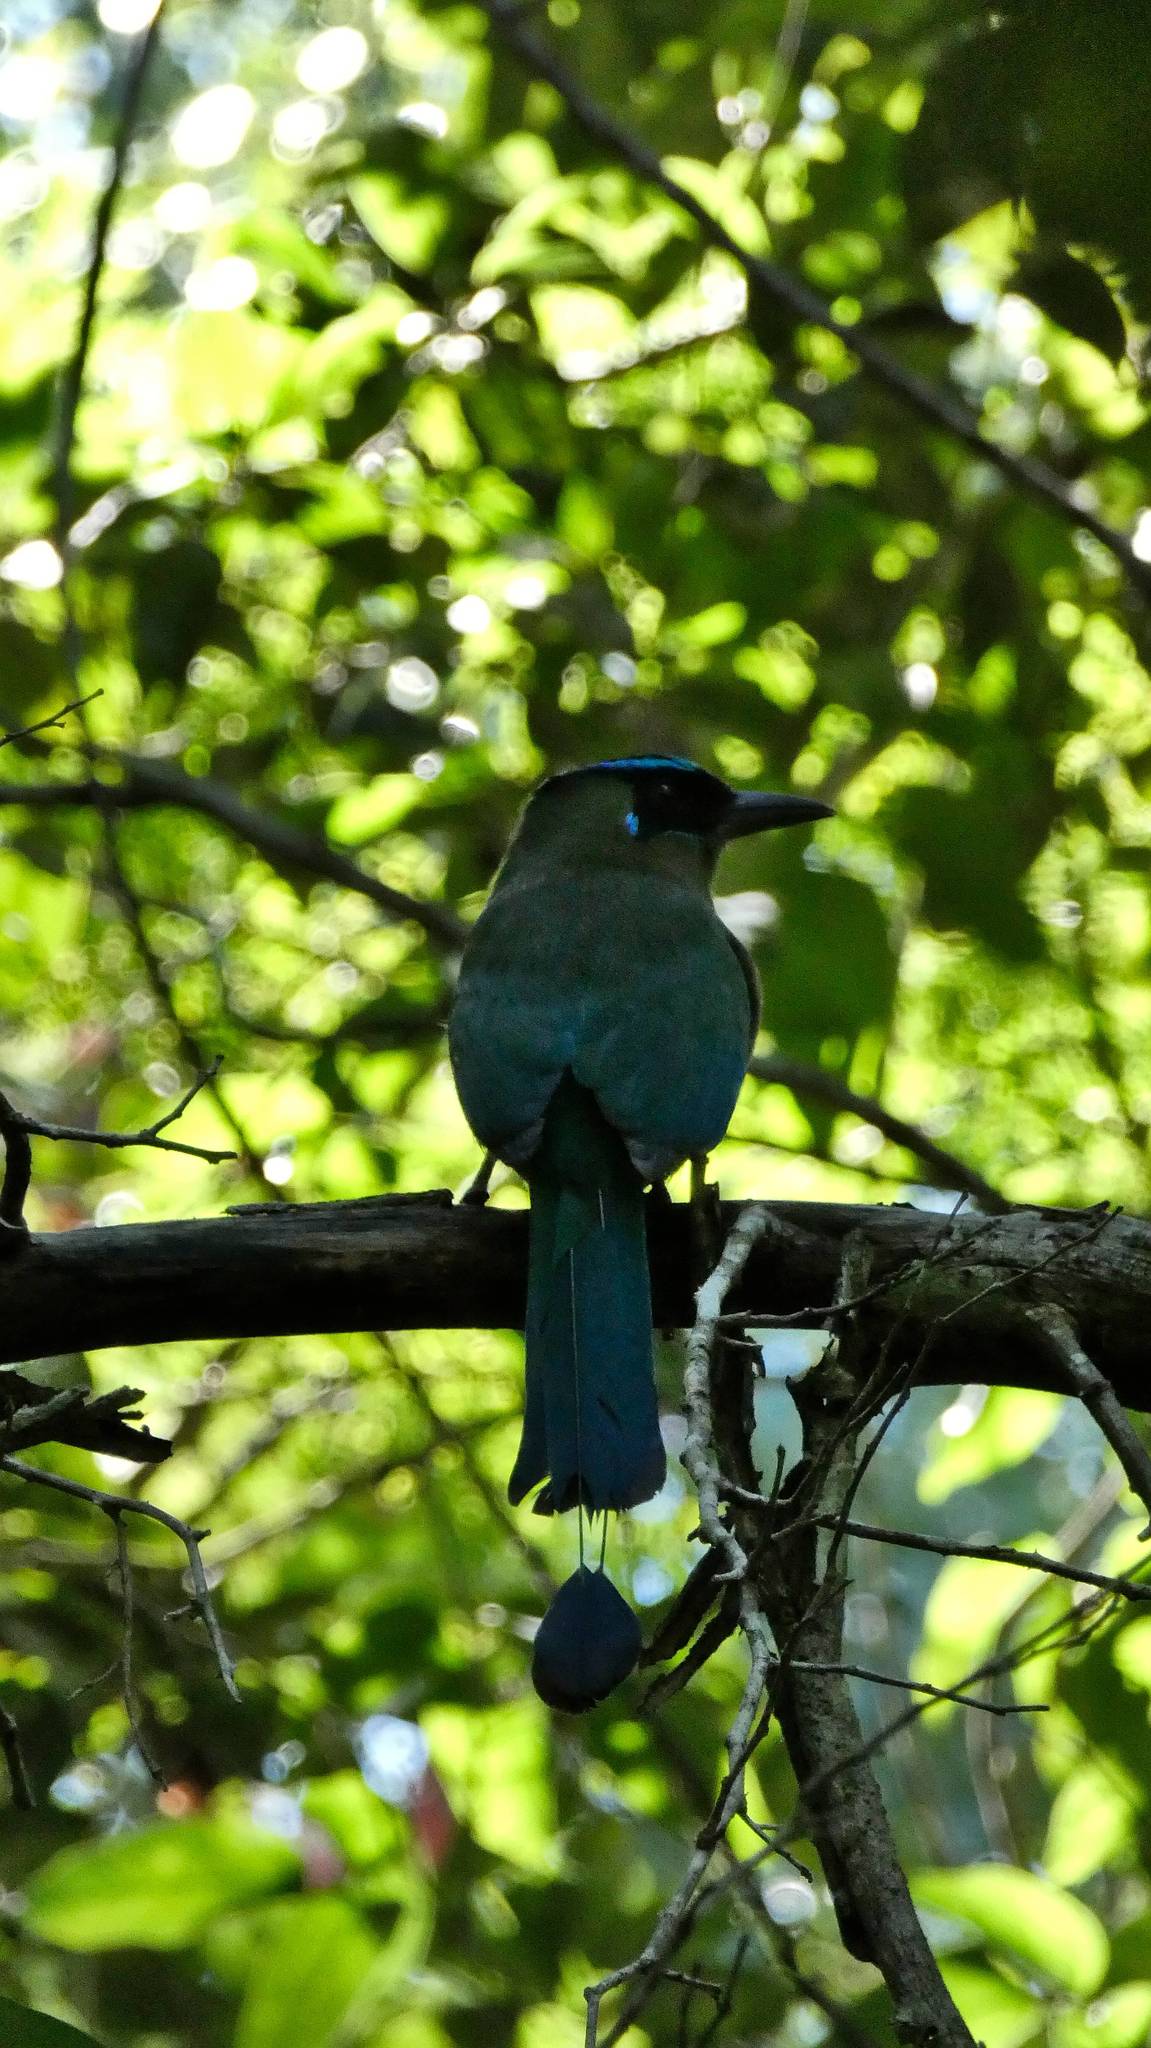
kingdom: Animalia
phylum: Chordata
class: Aves
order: Coraciiformes
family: Momotidae
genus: Momotus
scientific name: Momotus lessonii
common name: Lesson's motmot
